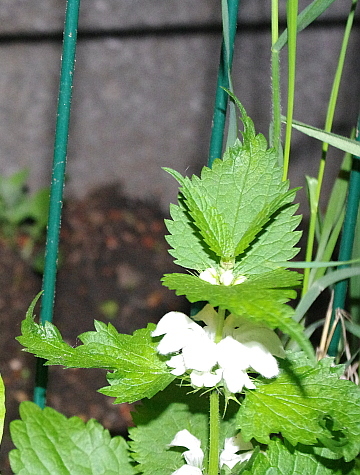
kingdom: Plantae
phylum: Tracheophyta
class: Magnoliopsida
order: Lamiales
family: Lamiaceae
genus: Lamium
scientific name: Lamium album
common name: White dead-nettle
